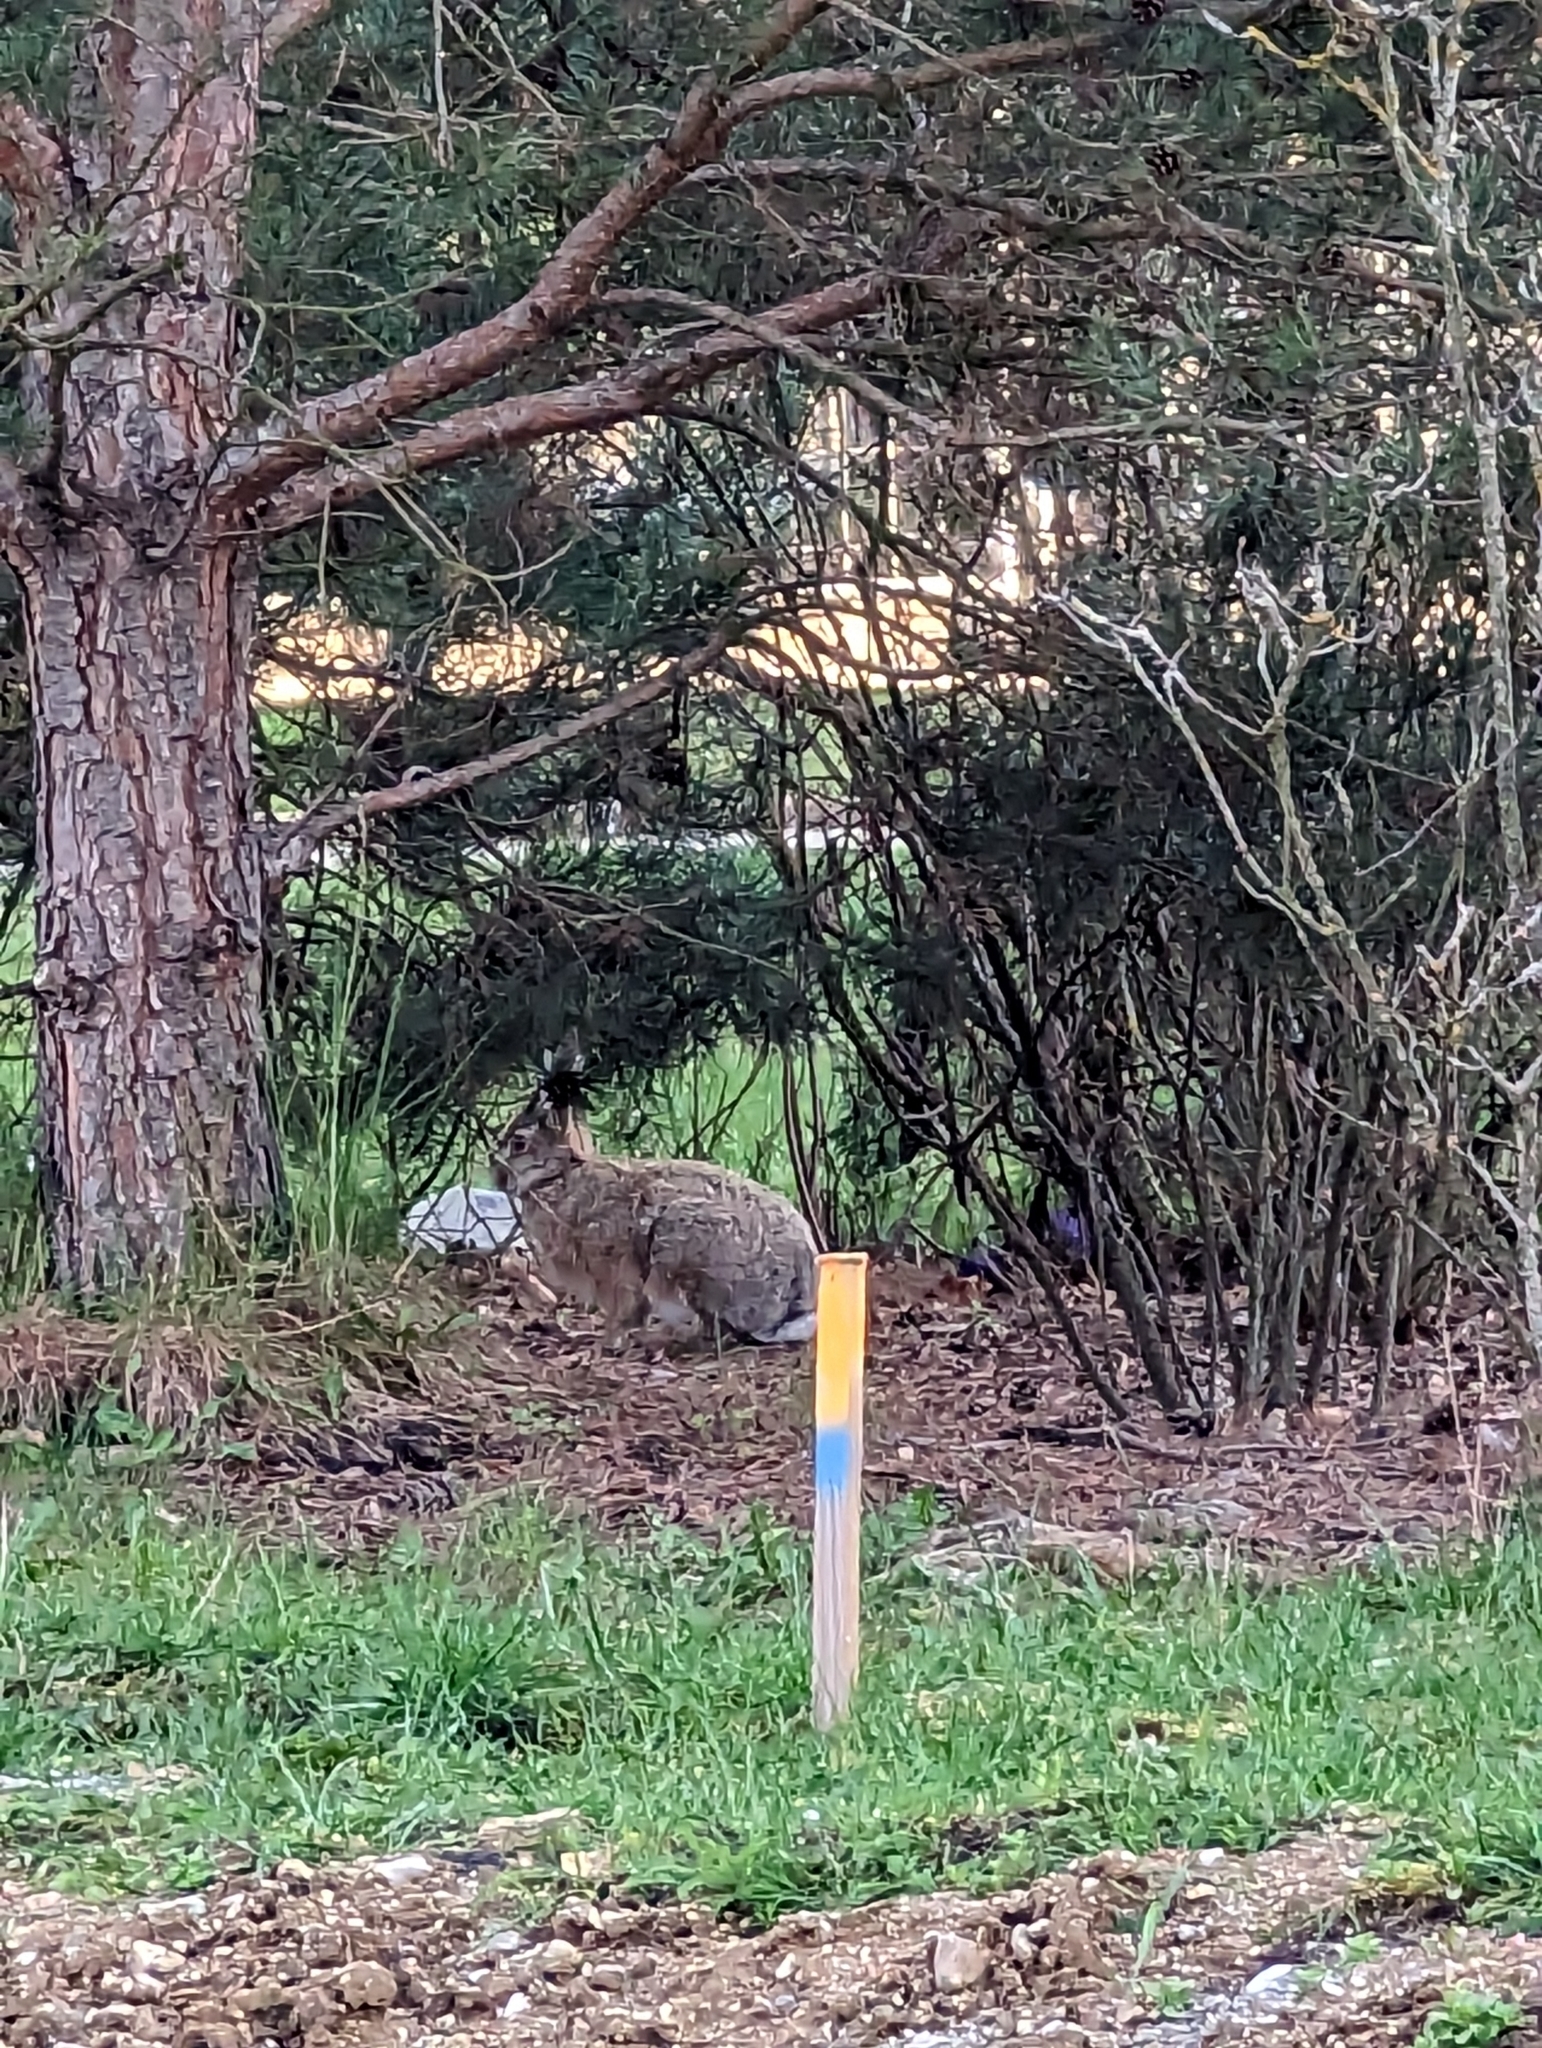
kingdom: Animalia
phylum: Chordata
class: Mammalia
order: Lagomorpha
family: Leporidae
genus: Oryctolagus
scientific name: Oryctolagus cuniculus
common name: European rabbit
